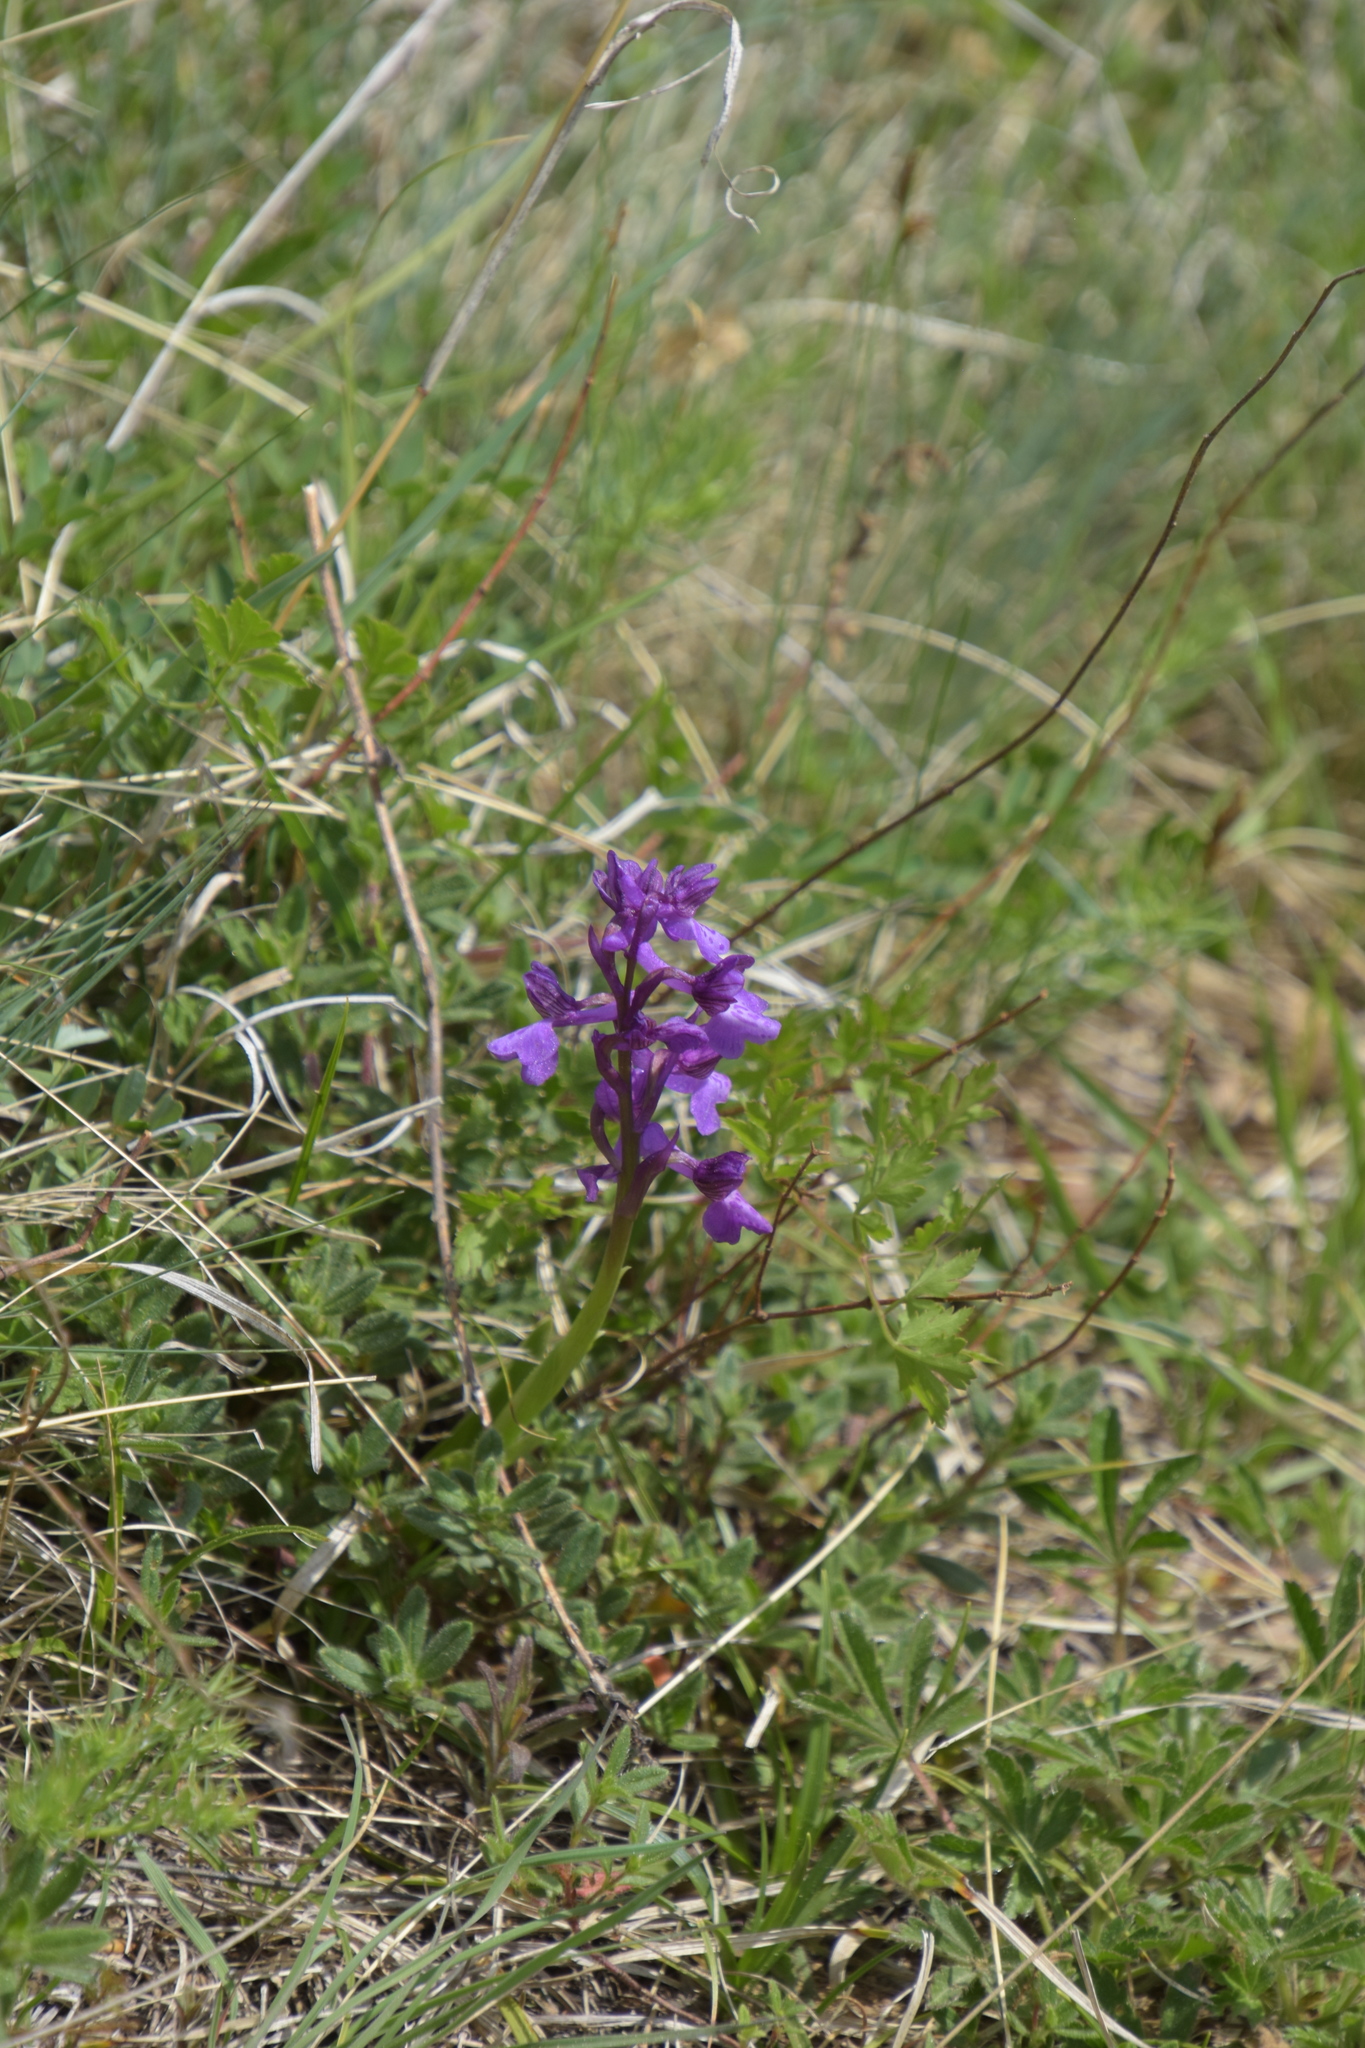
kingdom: Plantae
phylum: Tracheophyta
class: Liliopsida
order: Asparagales
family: Orchidaceae
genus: Anacamptis
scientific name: Anacamptis morio
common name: Green-winged orchid
